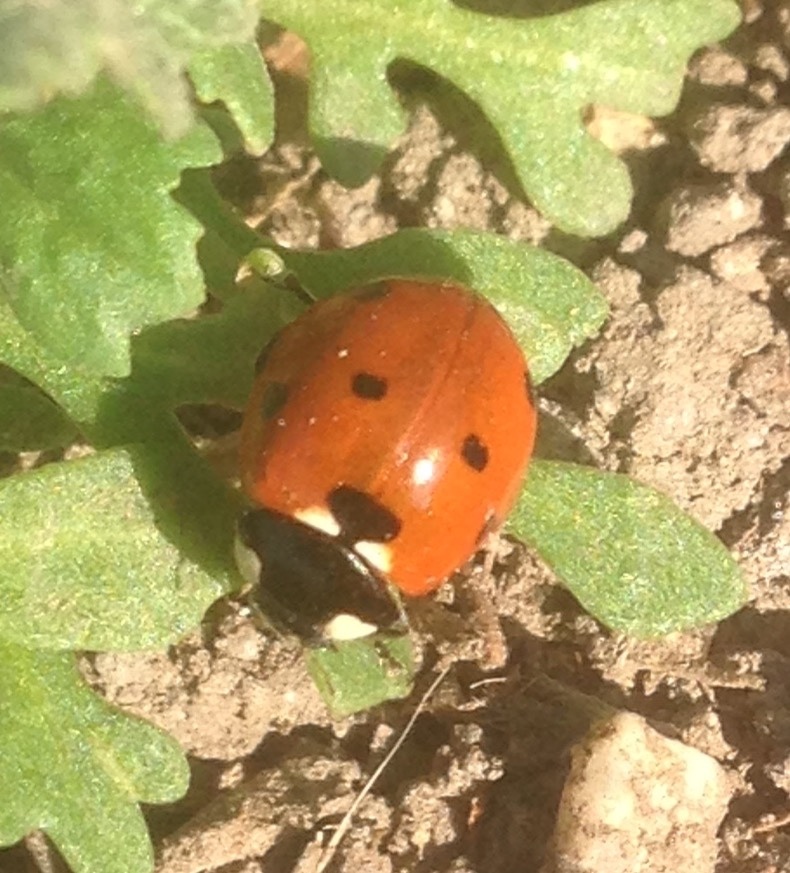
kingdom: Animalia
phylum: Arthropoda
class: Insecta
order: Coleoptera
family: Coccinellidae
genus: Coccinella
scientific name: Coccinella septempunctata
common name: Sevenspotted lady beetle
